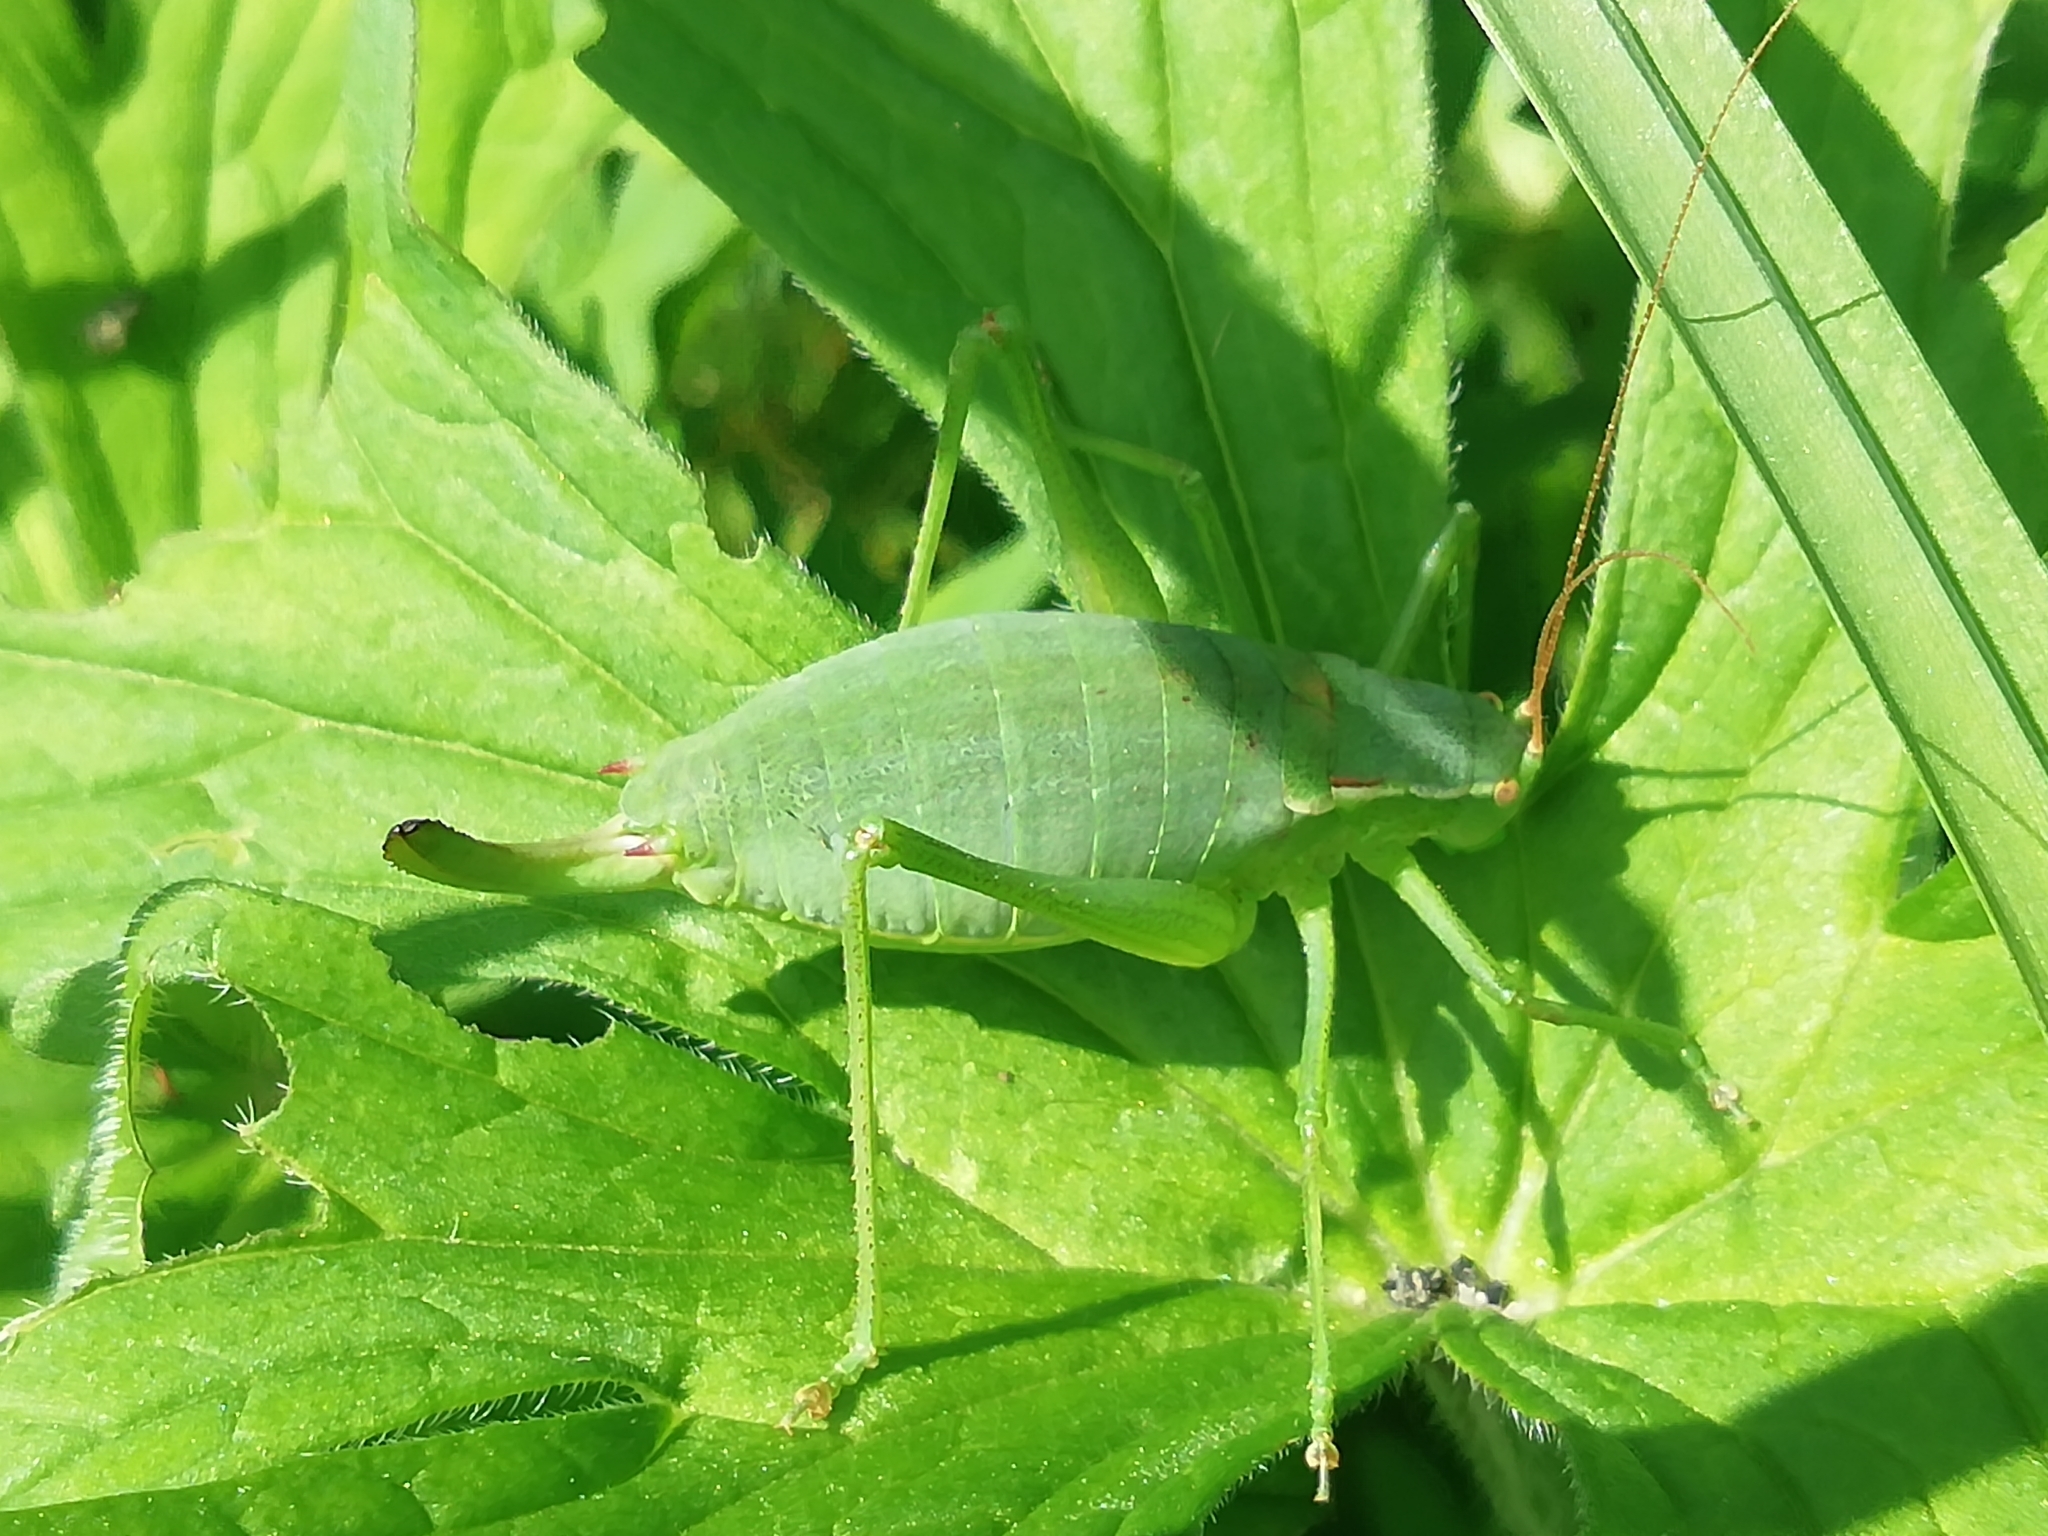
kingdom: Animalia
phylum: Arthropoda
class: Insecta
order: Orthoptera
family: Tettigoniidae
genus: Isophya
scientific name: Isophya altaica
